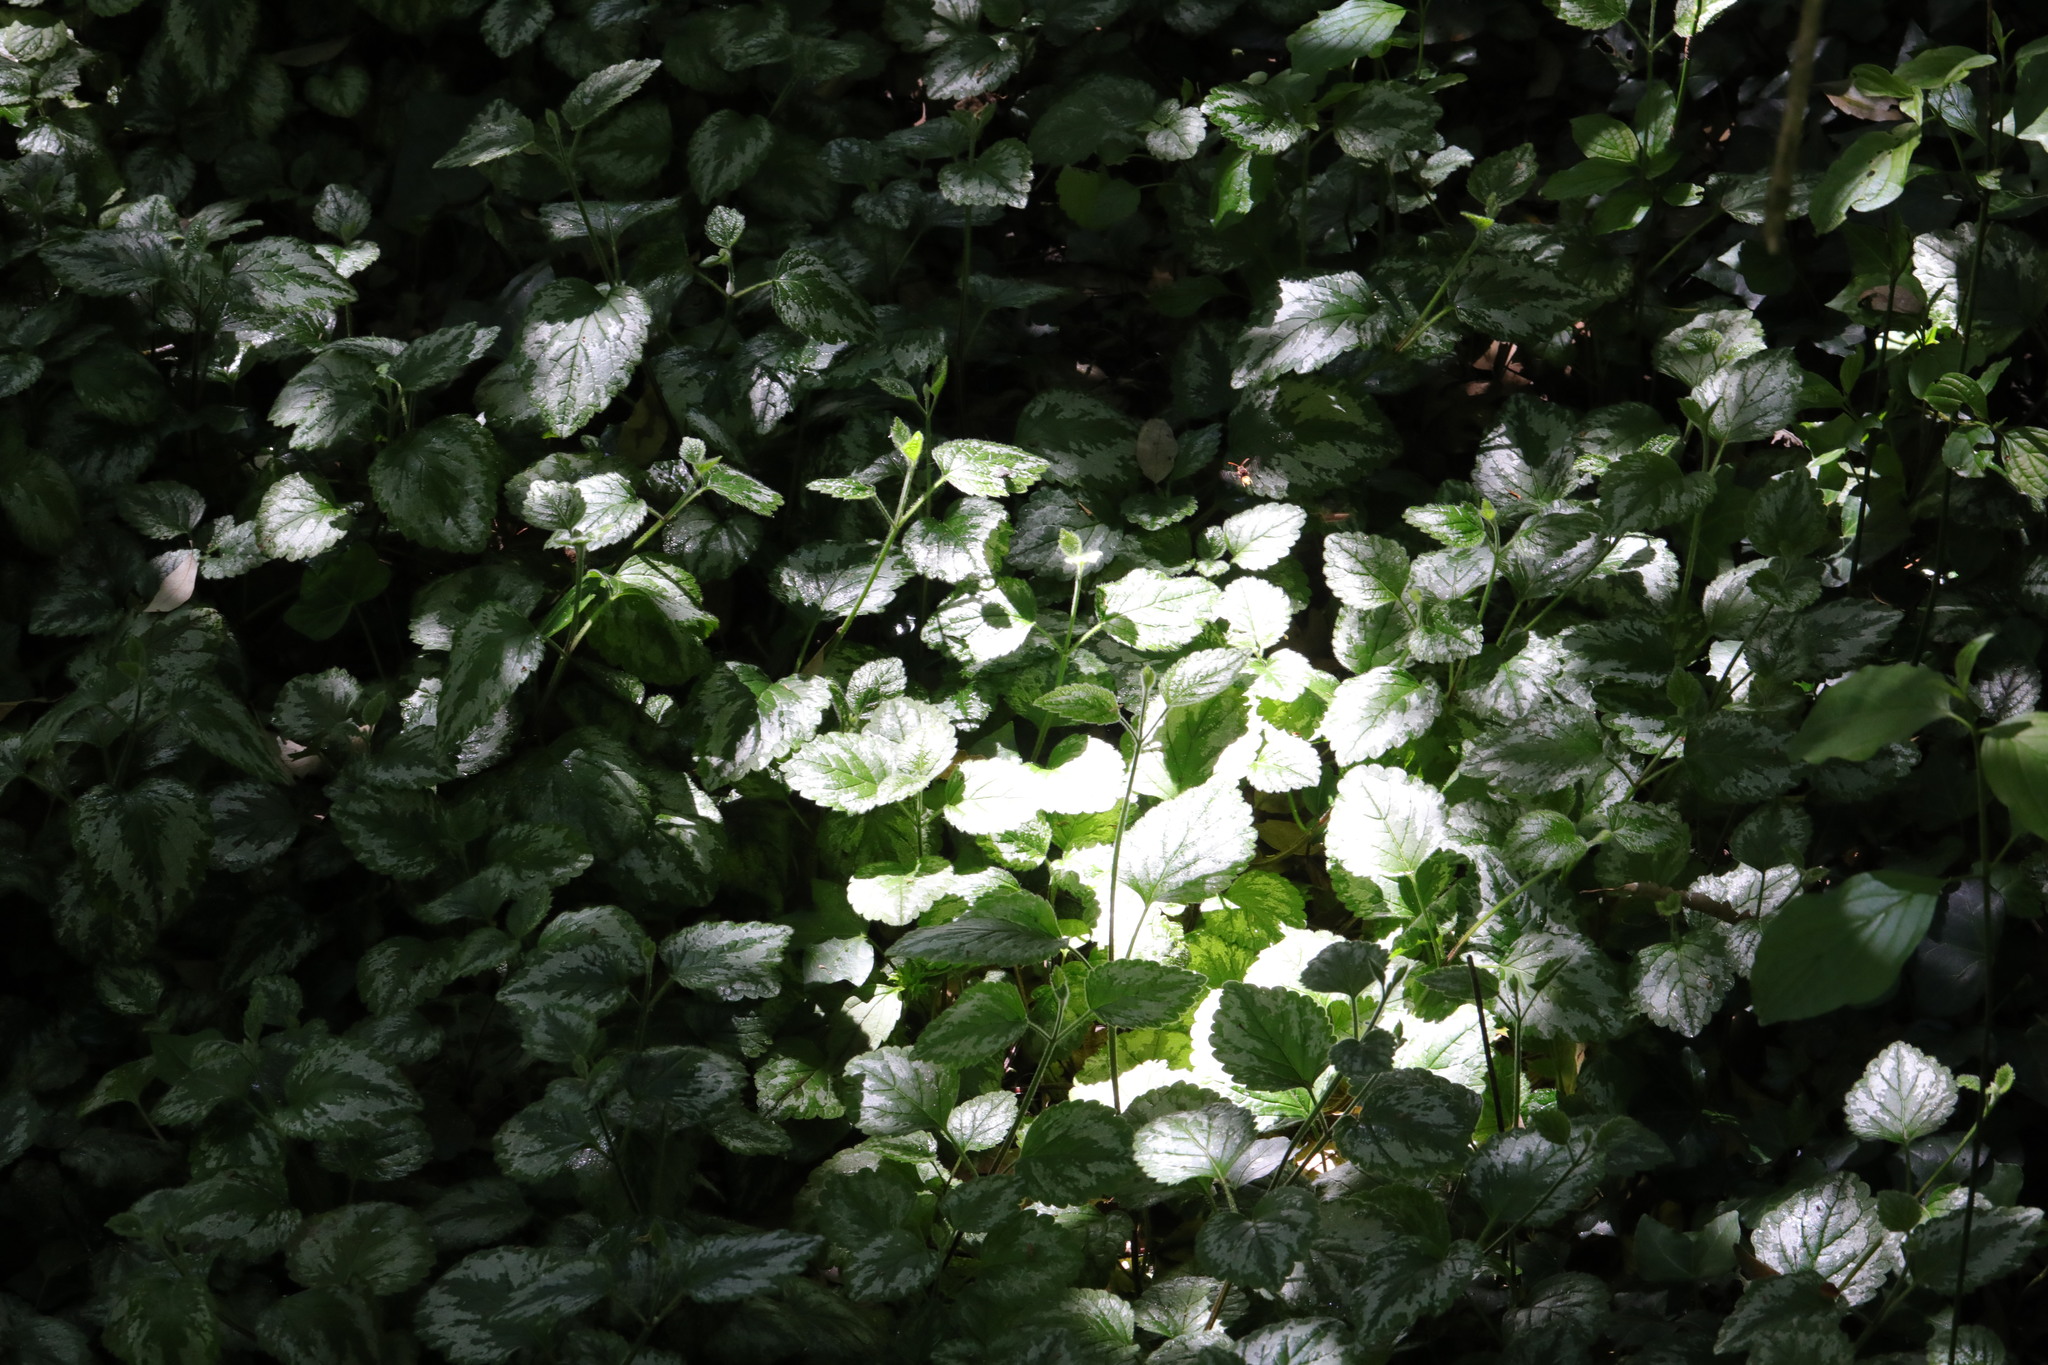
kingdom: Plantae
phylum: Tracheophyta
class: Magnoliopsida
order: Lamiales
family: Lamiaceae
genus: Lamium
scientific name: Lamium galeobdolon
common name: Yellow archangel
